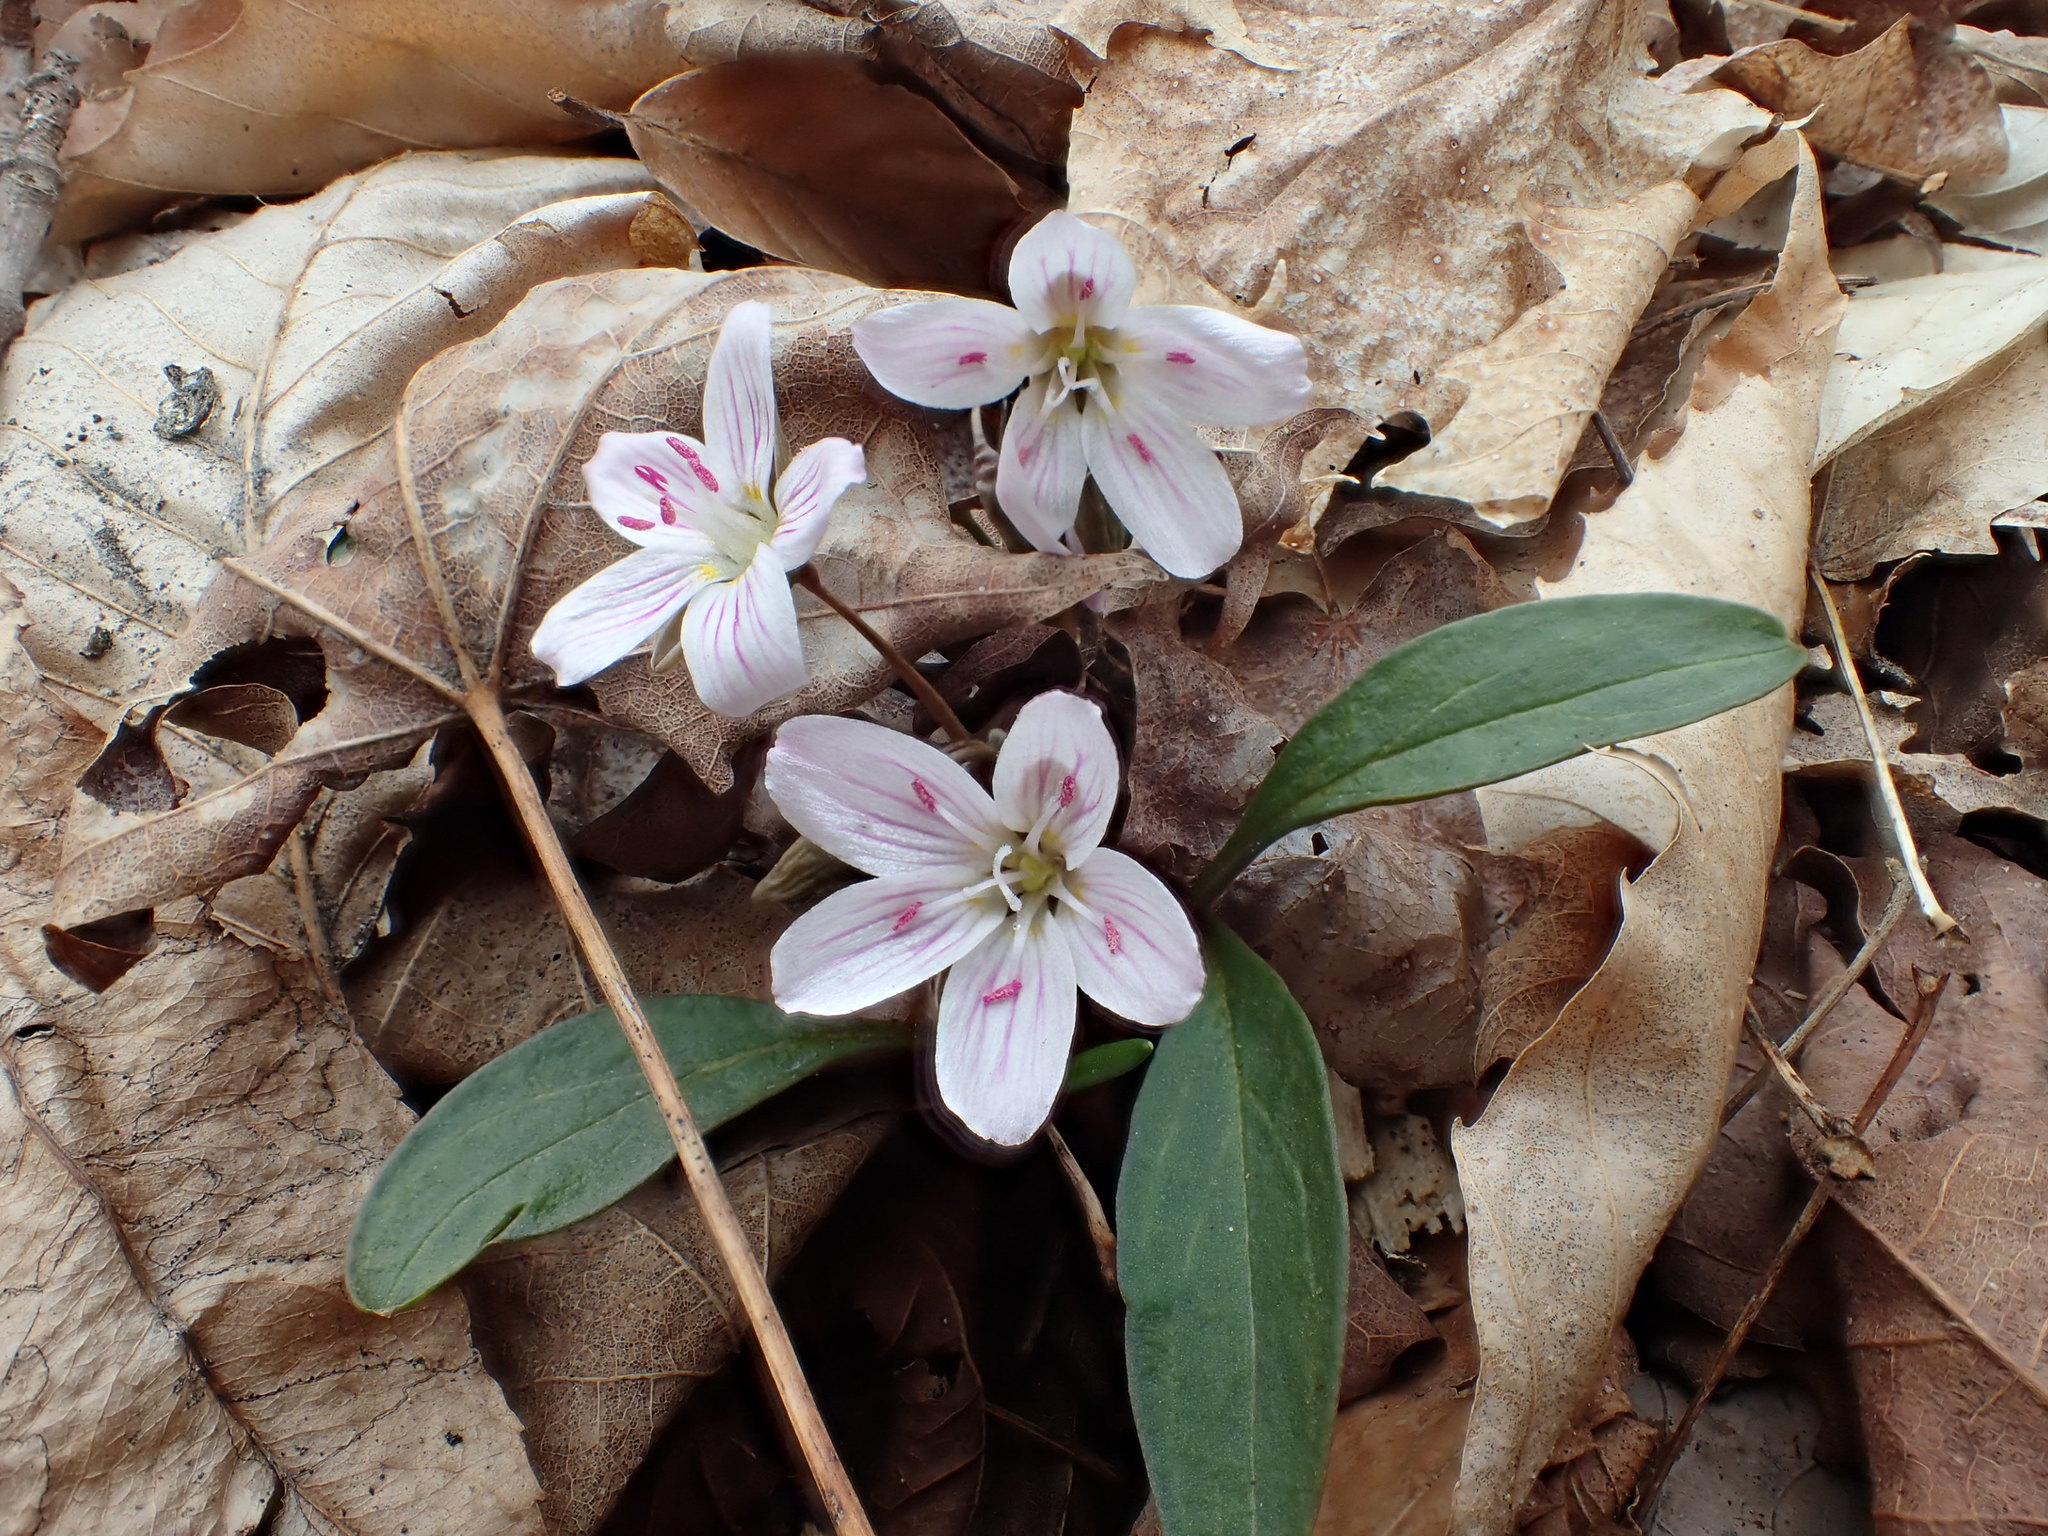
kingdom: Plantae
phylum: Tracheophyta
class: Magnoliopsida
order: Caryophyllales
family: Montiaceae
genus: Claytonia
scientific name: Claytonia caroliniana
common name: Carolina spring beauty
